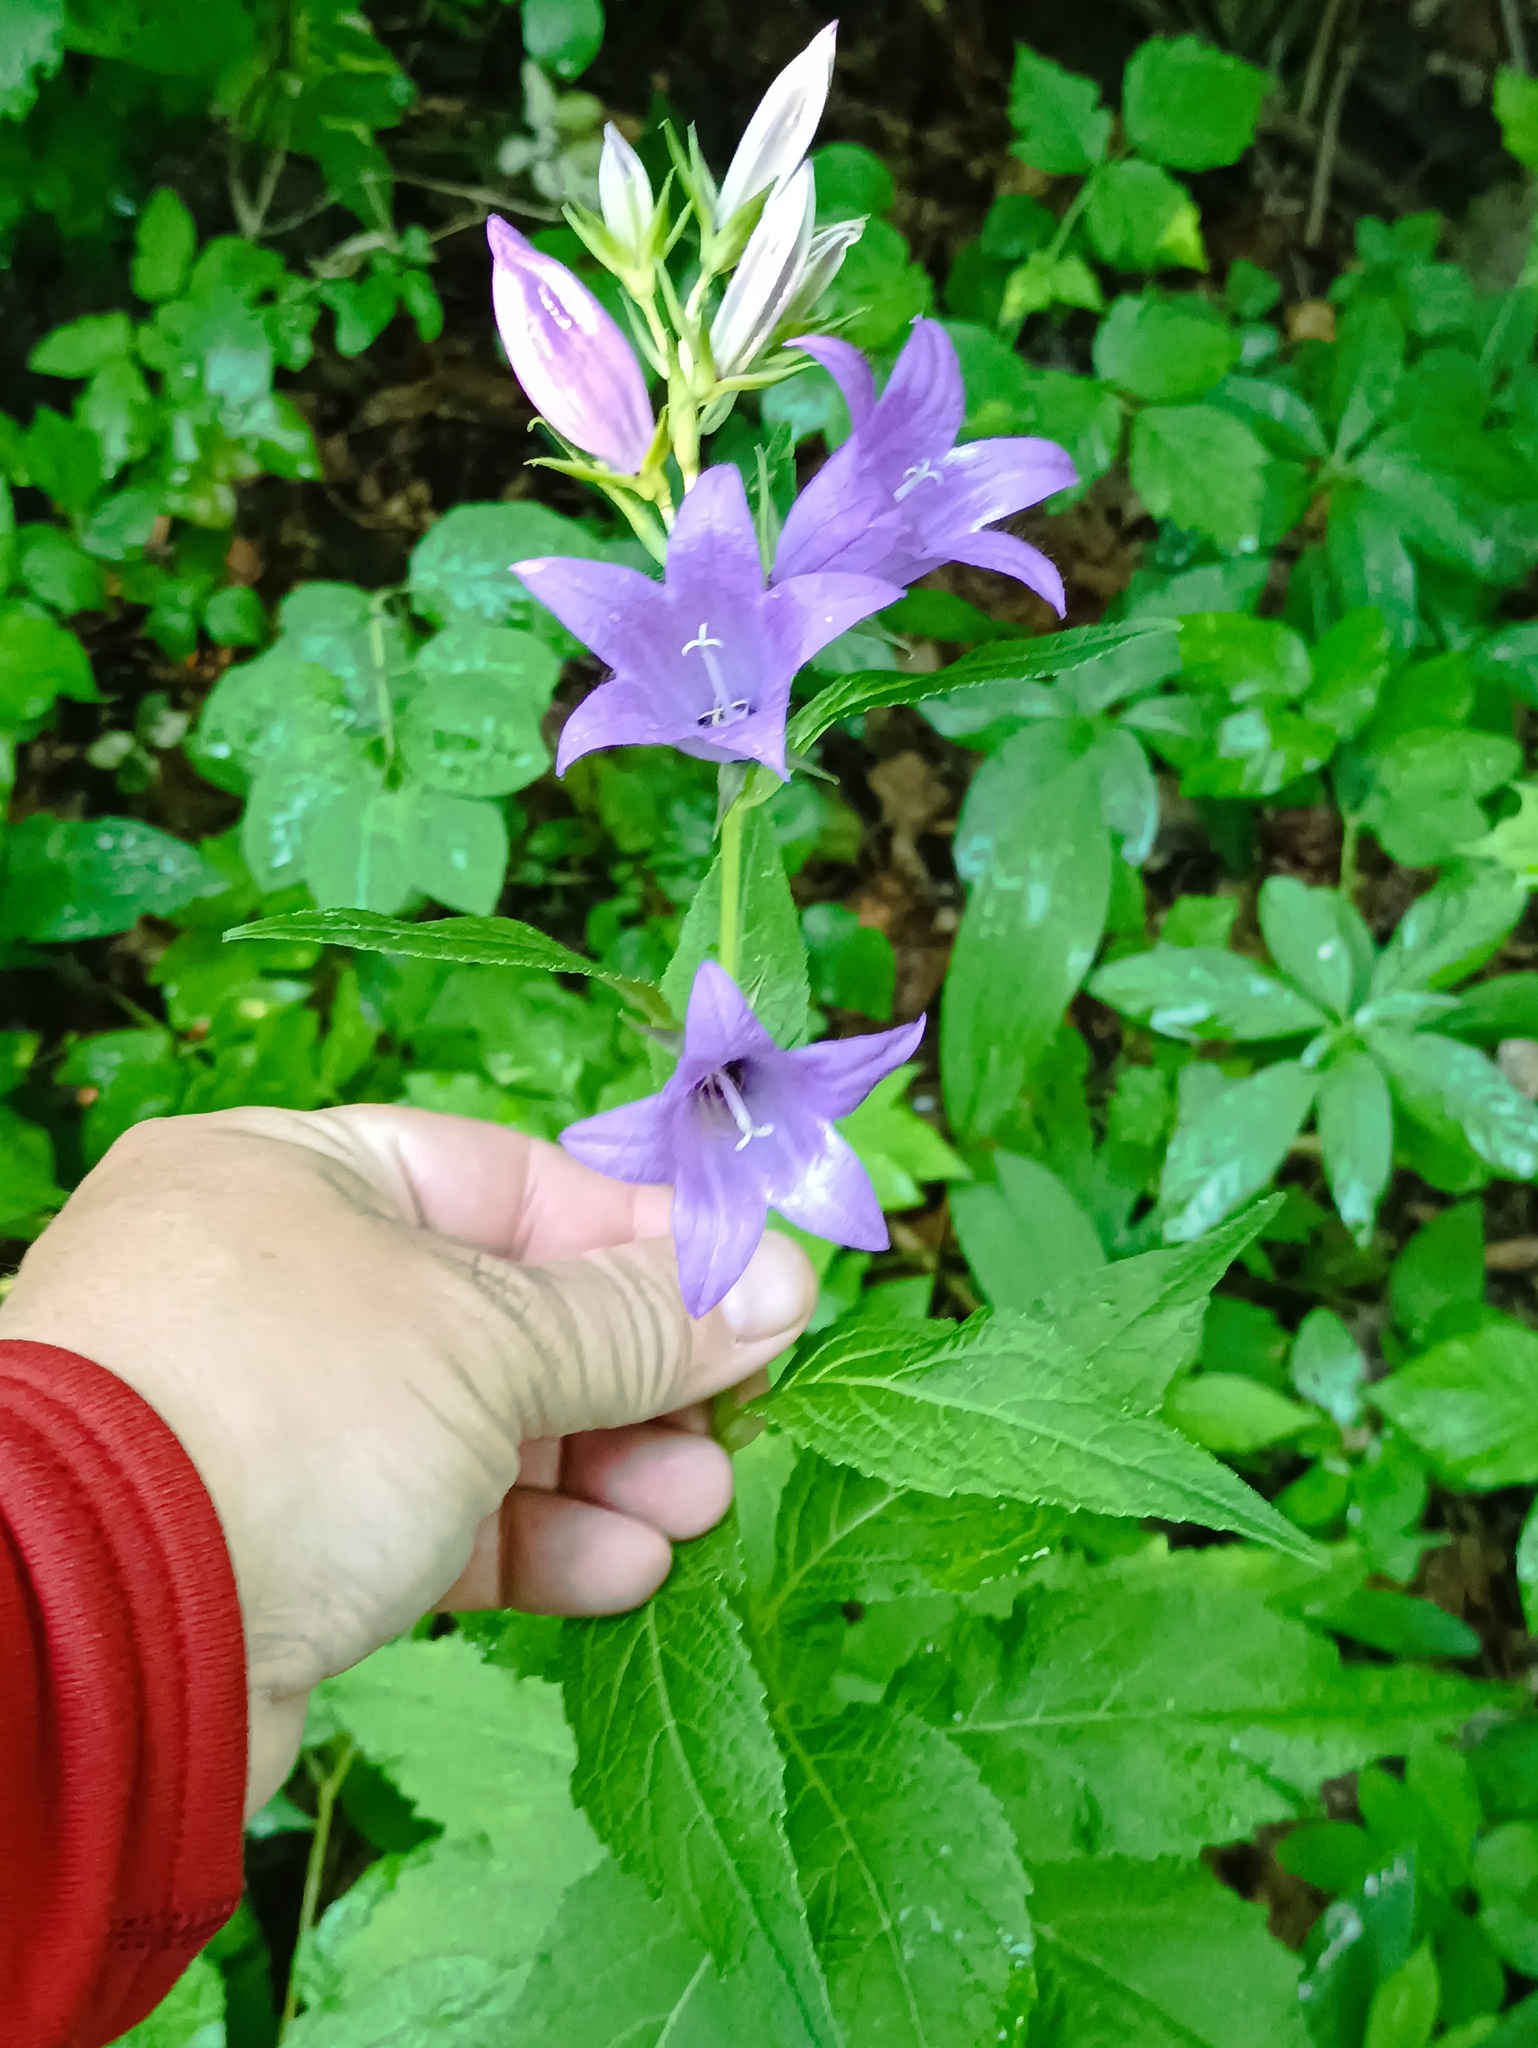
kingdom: Plantae
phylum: Tracheophyta
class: Magnoliopsida
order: Asterales
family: Campanulaceae
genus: Campanula
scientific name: Campanula latifolia
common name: Giant bellflower
